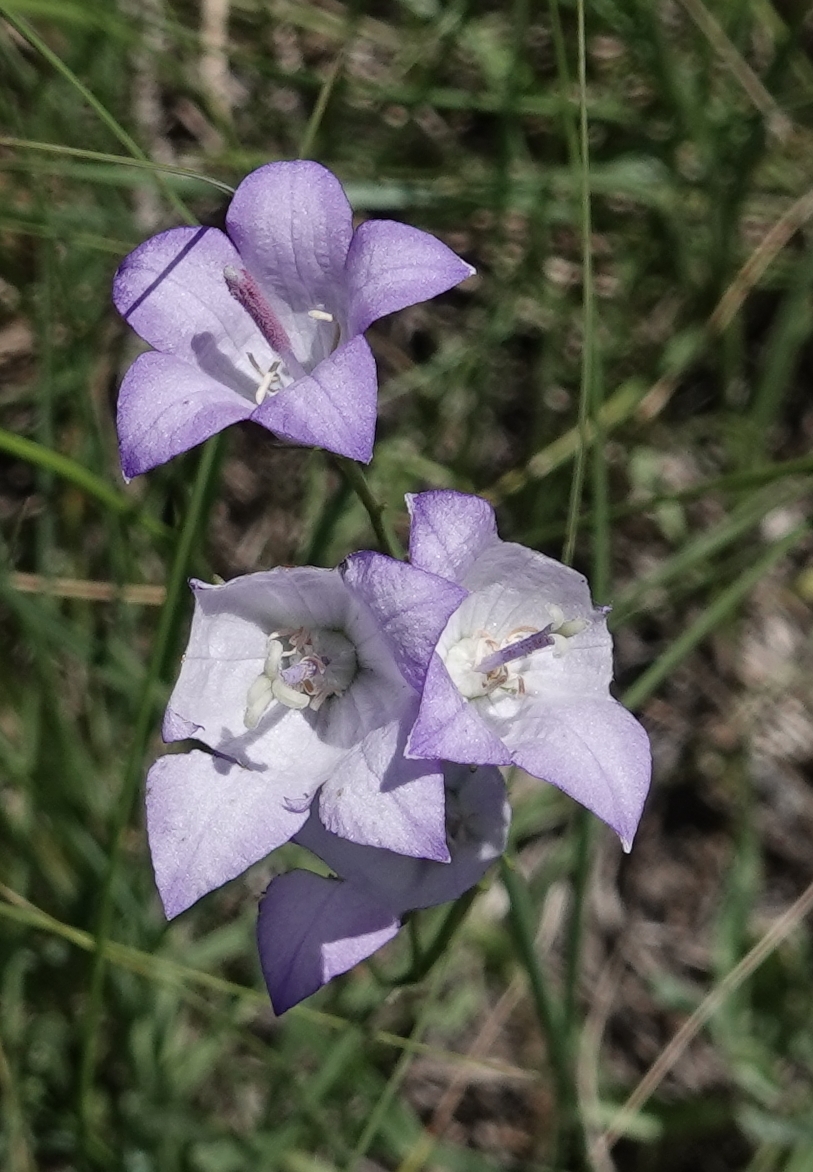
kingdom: Plantae
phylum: Tracheophyta
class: Magnoliopsida
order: Asterales
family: Campanulaceae
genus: Campanula
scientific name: Campanula petiolata
